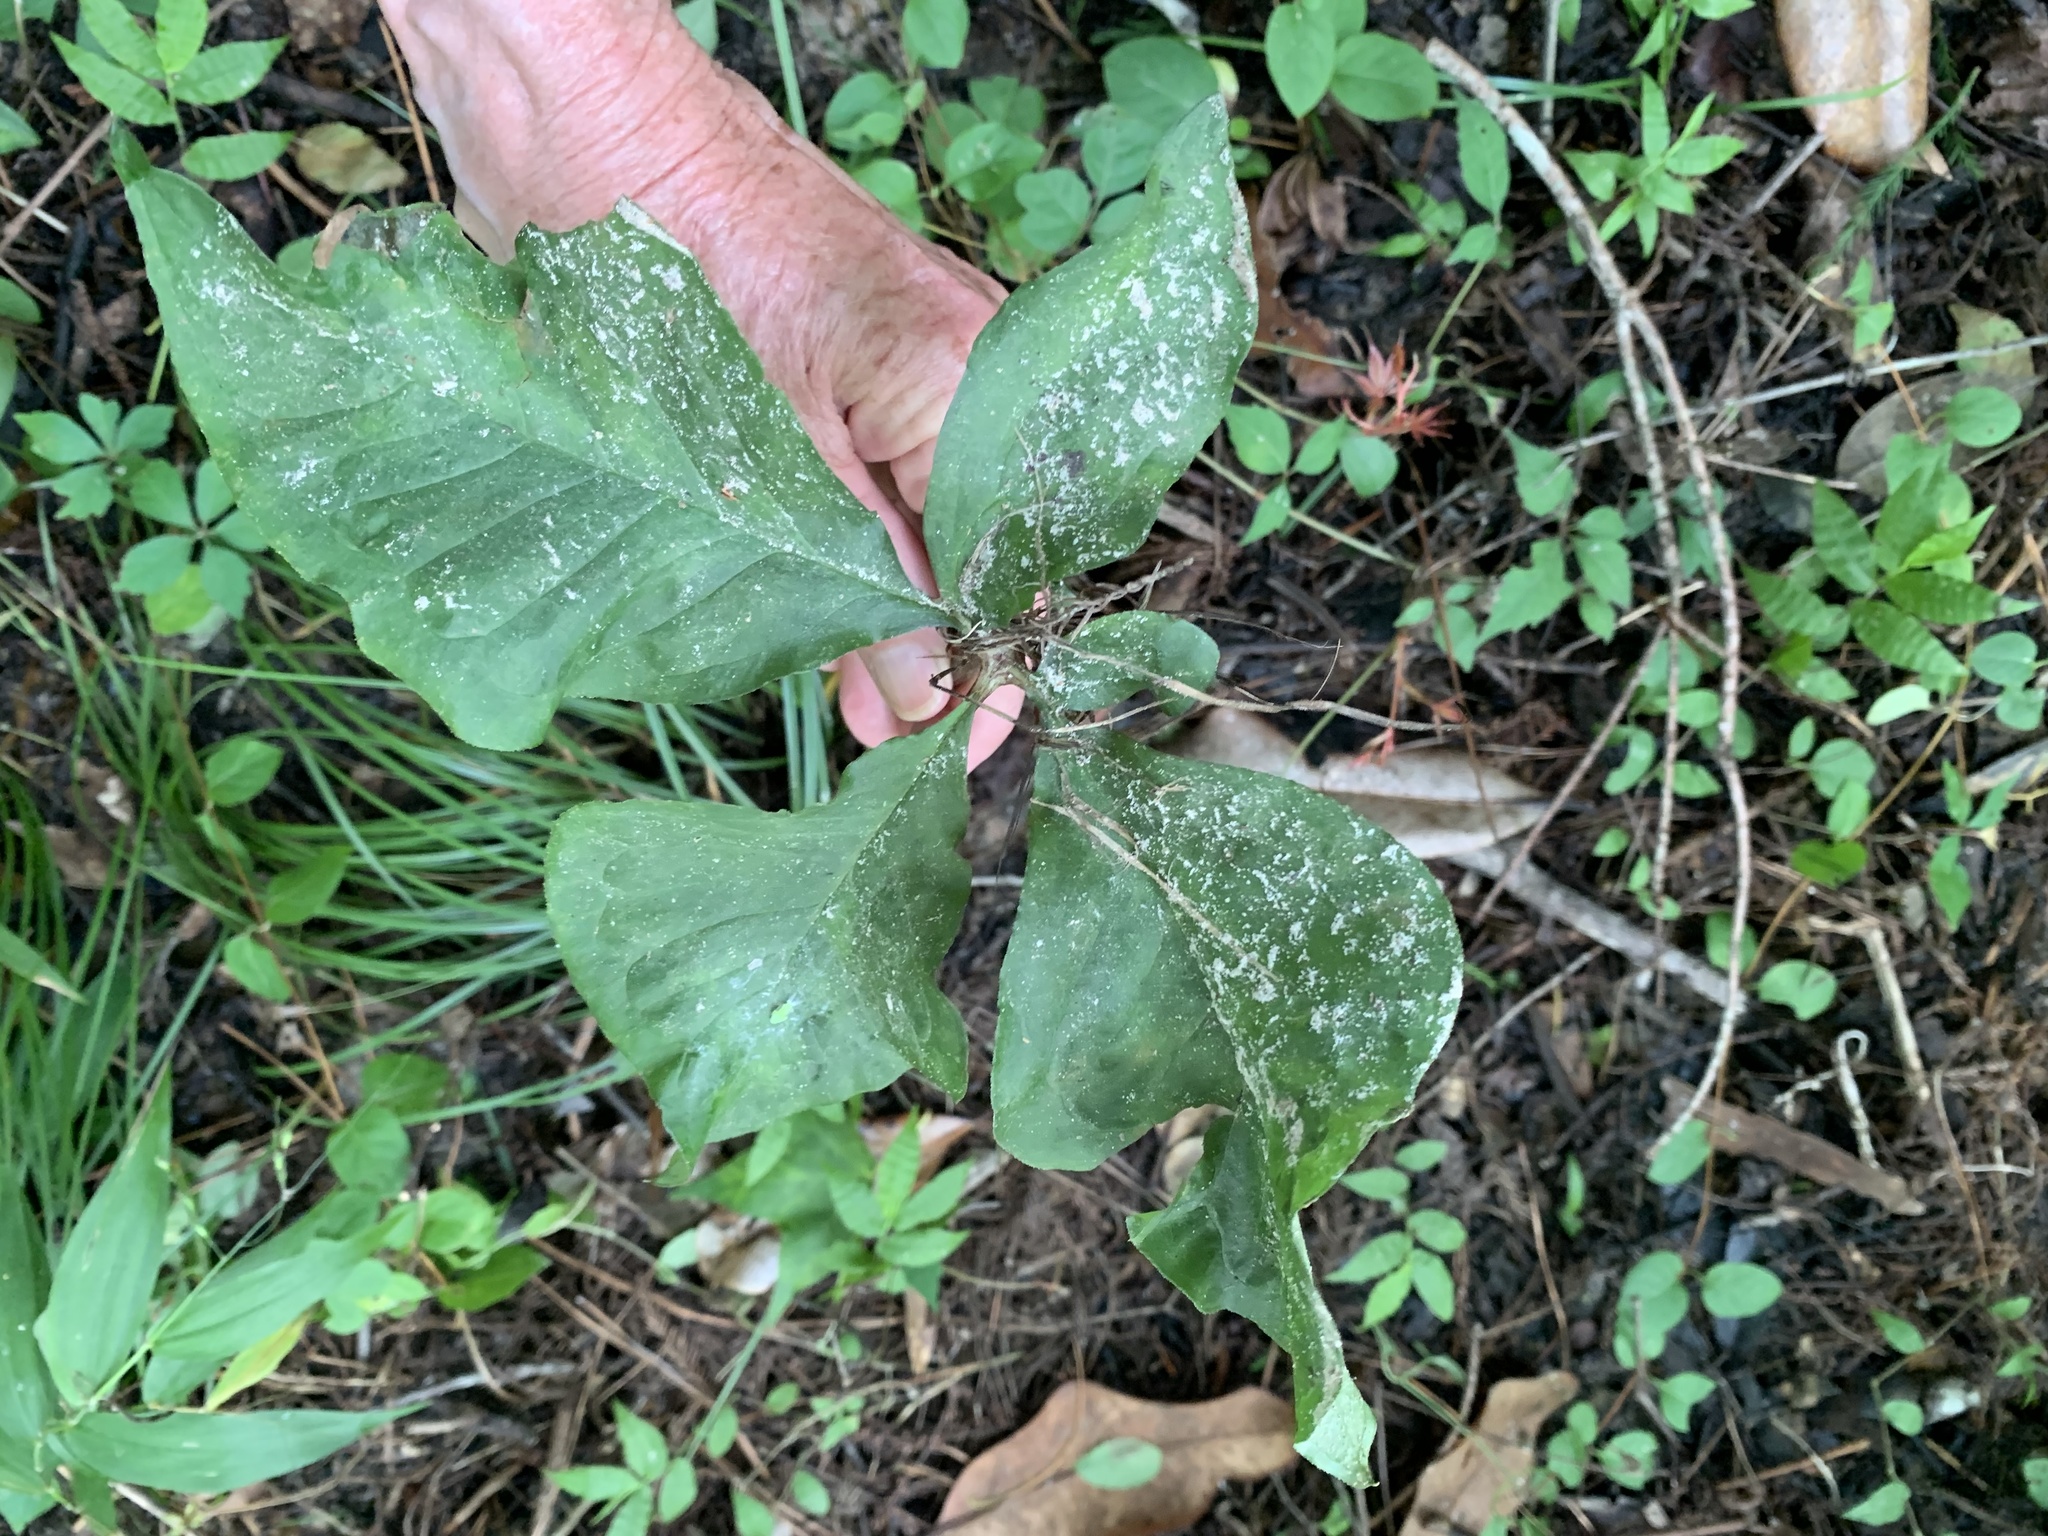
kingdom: Plantae
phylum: Tracheophyta
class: Liliopsida
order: Alismatales
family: Araceae
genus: Arisaema
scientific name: Arisaema dracontium
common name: Dragon-arum
